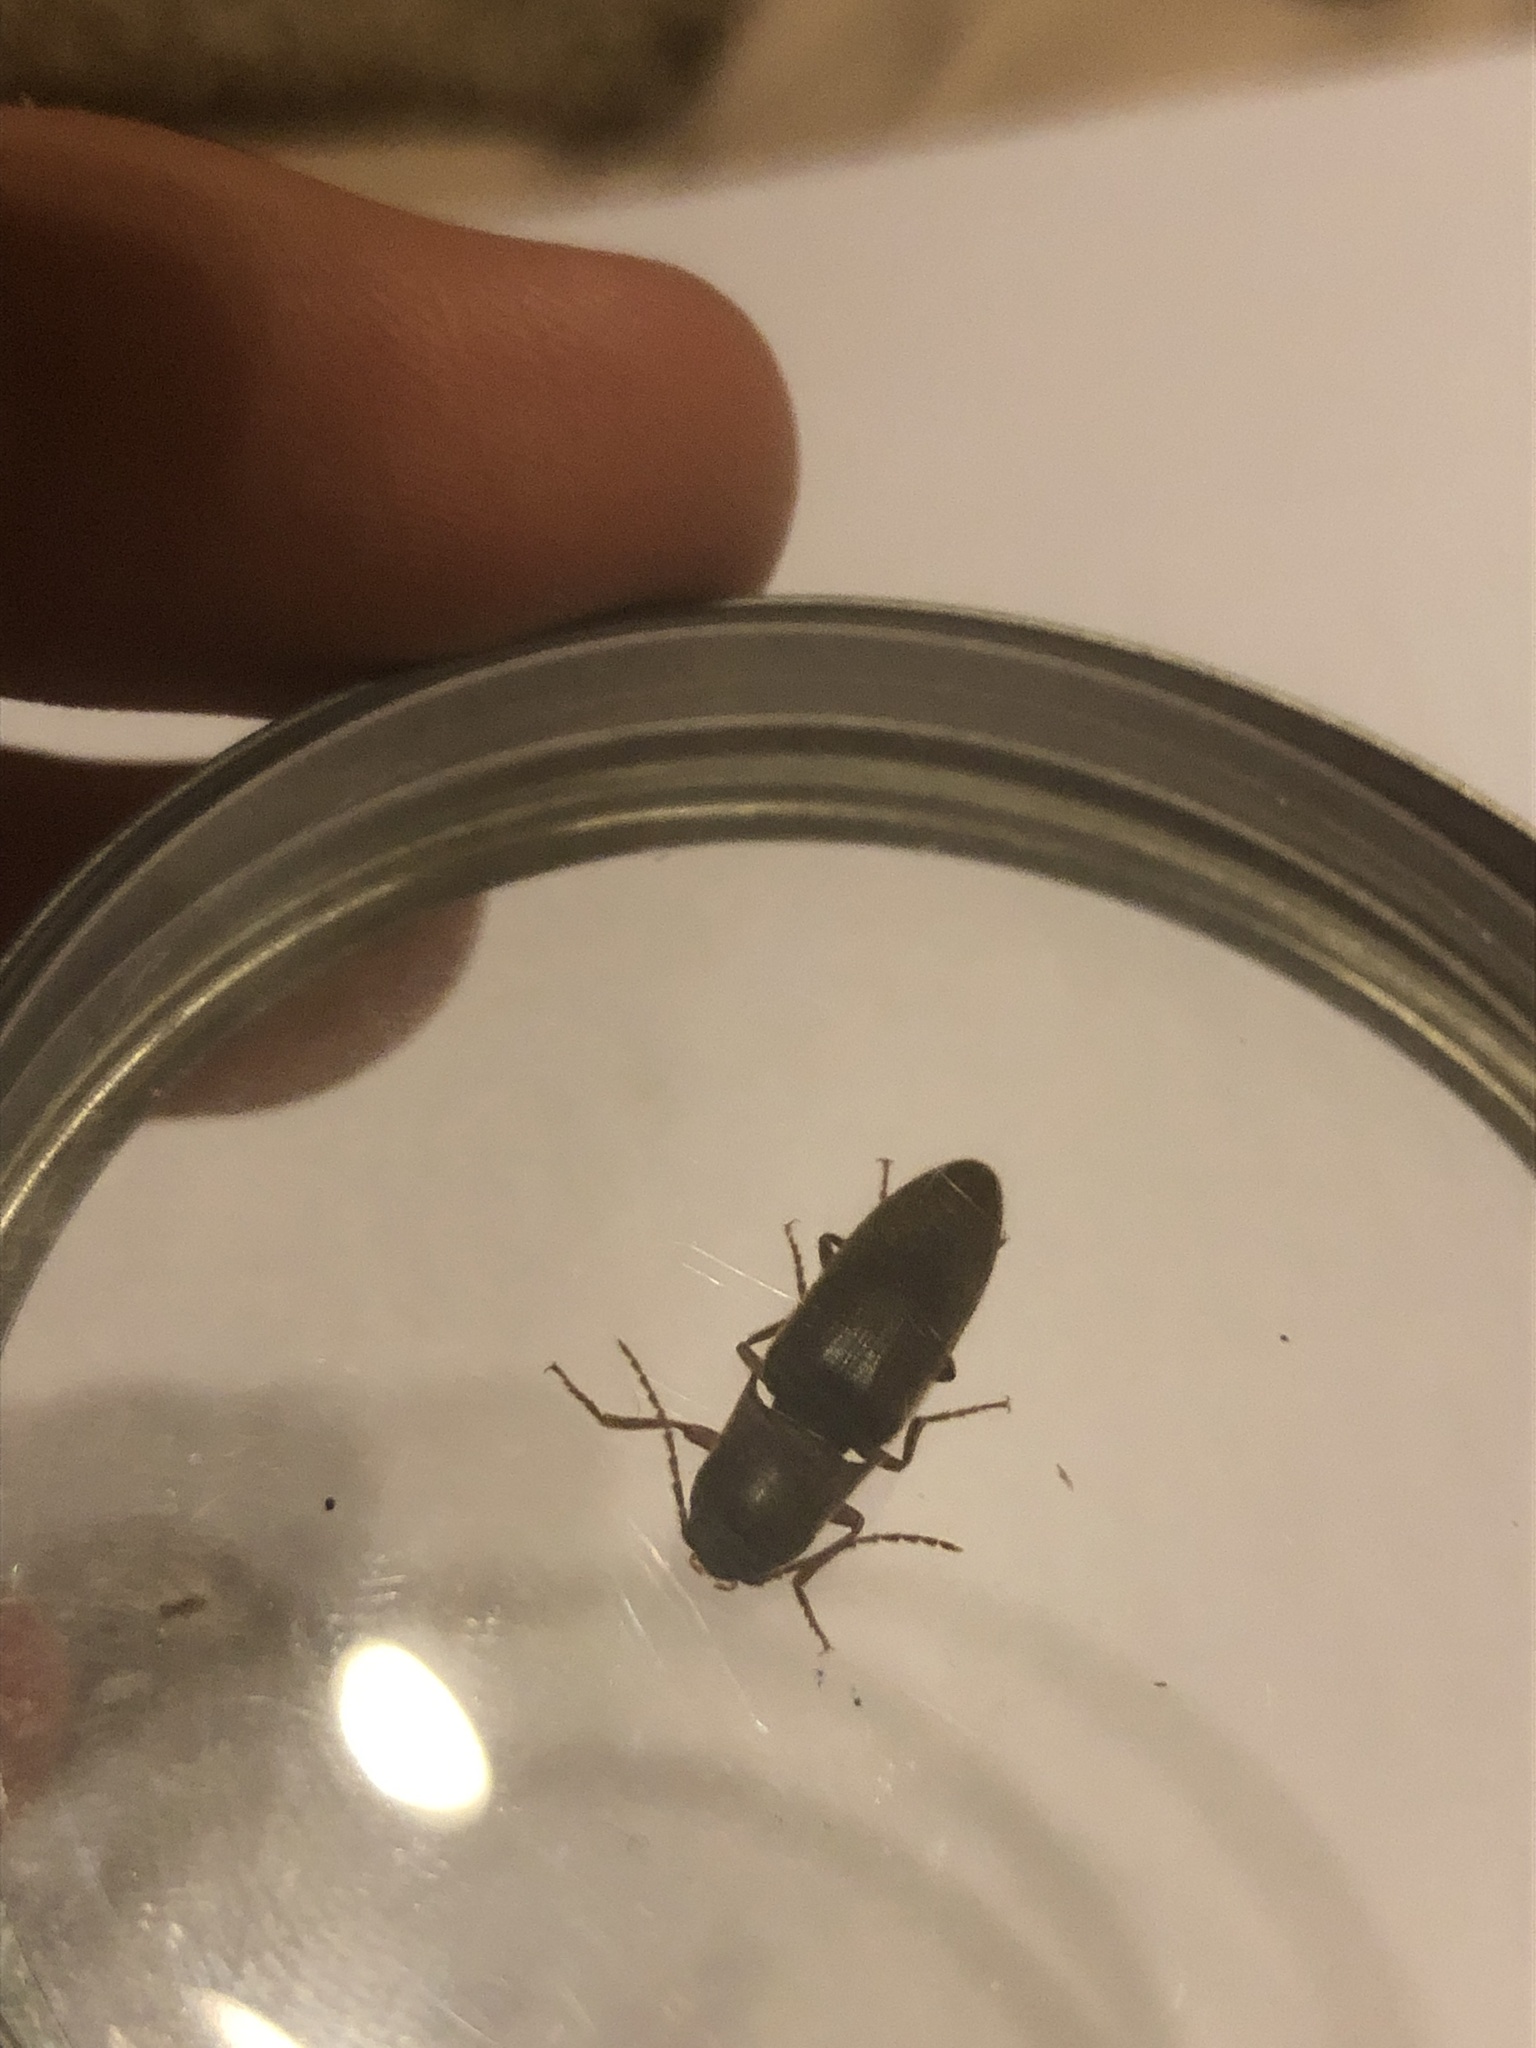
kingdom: Animalia
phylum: Arthropoda
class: Insecta
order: Coleoptera
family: Elateridae
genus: Diplostethus
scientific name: Diplostethus
